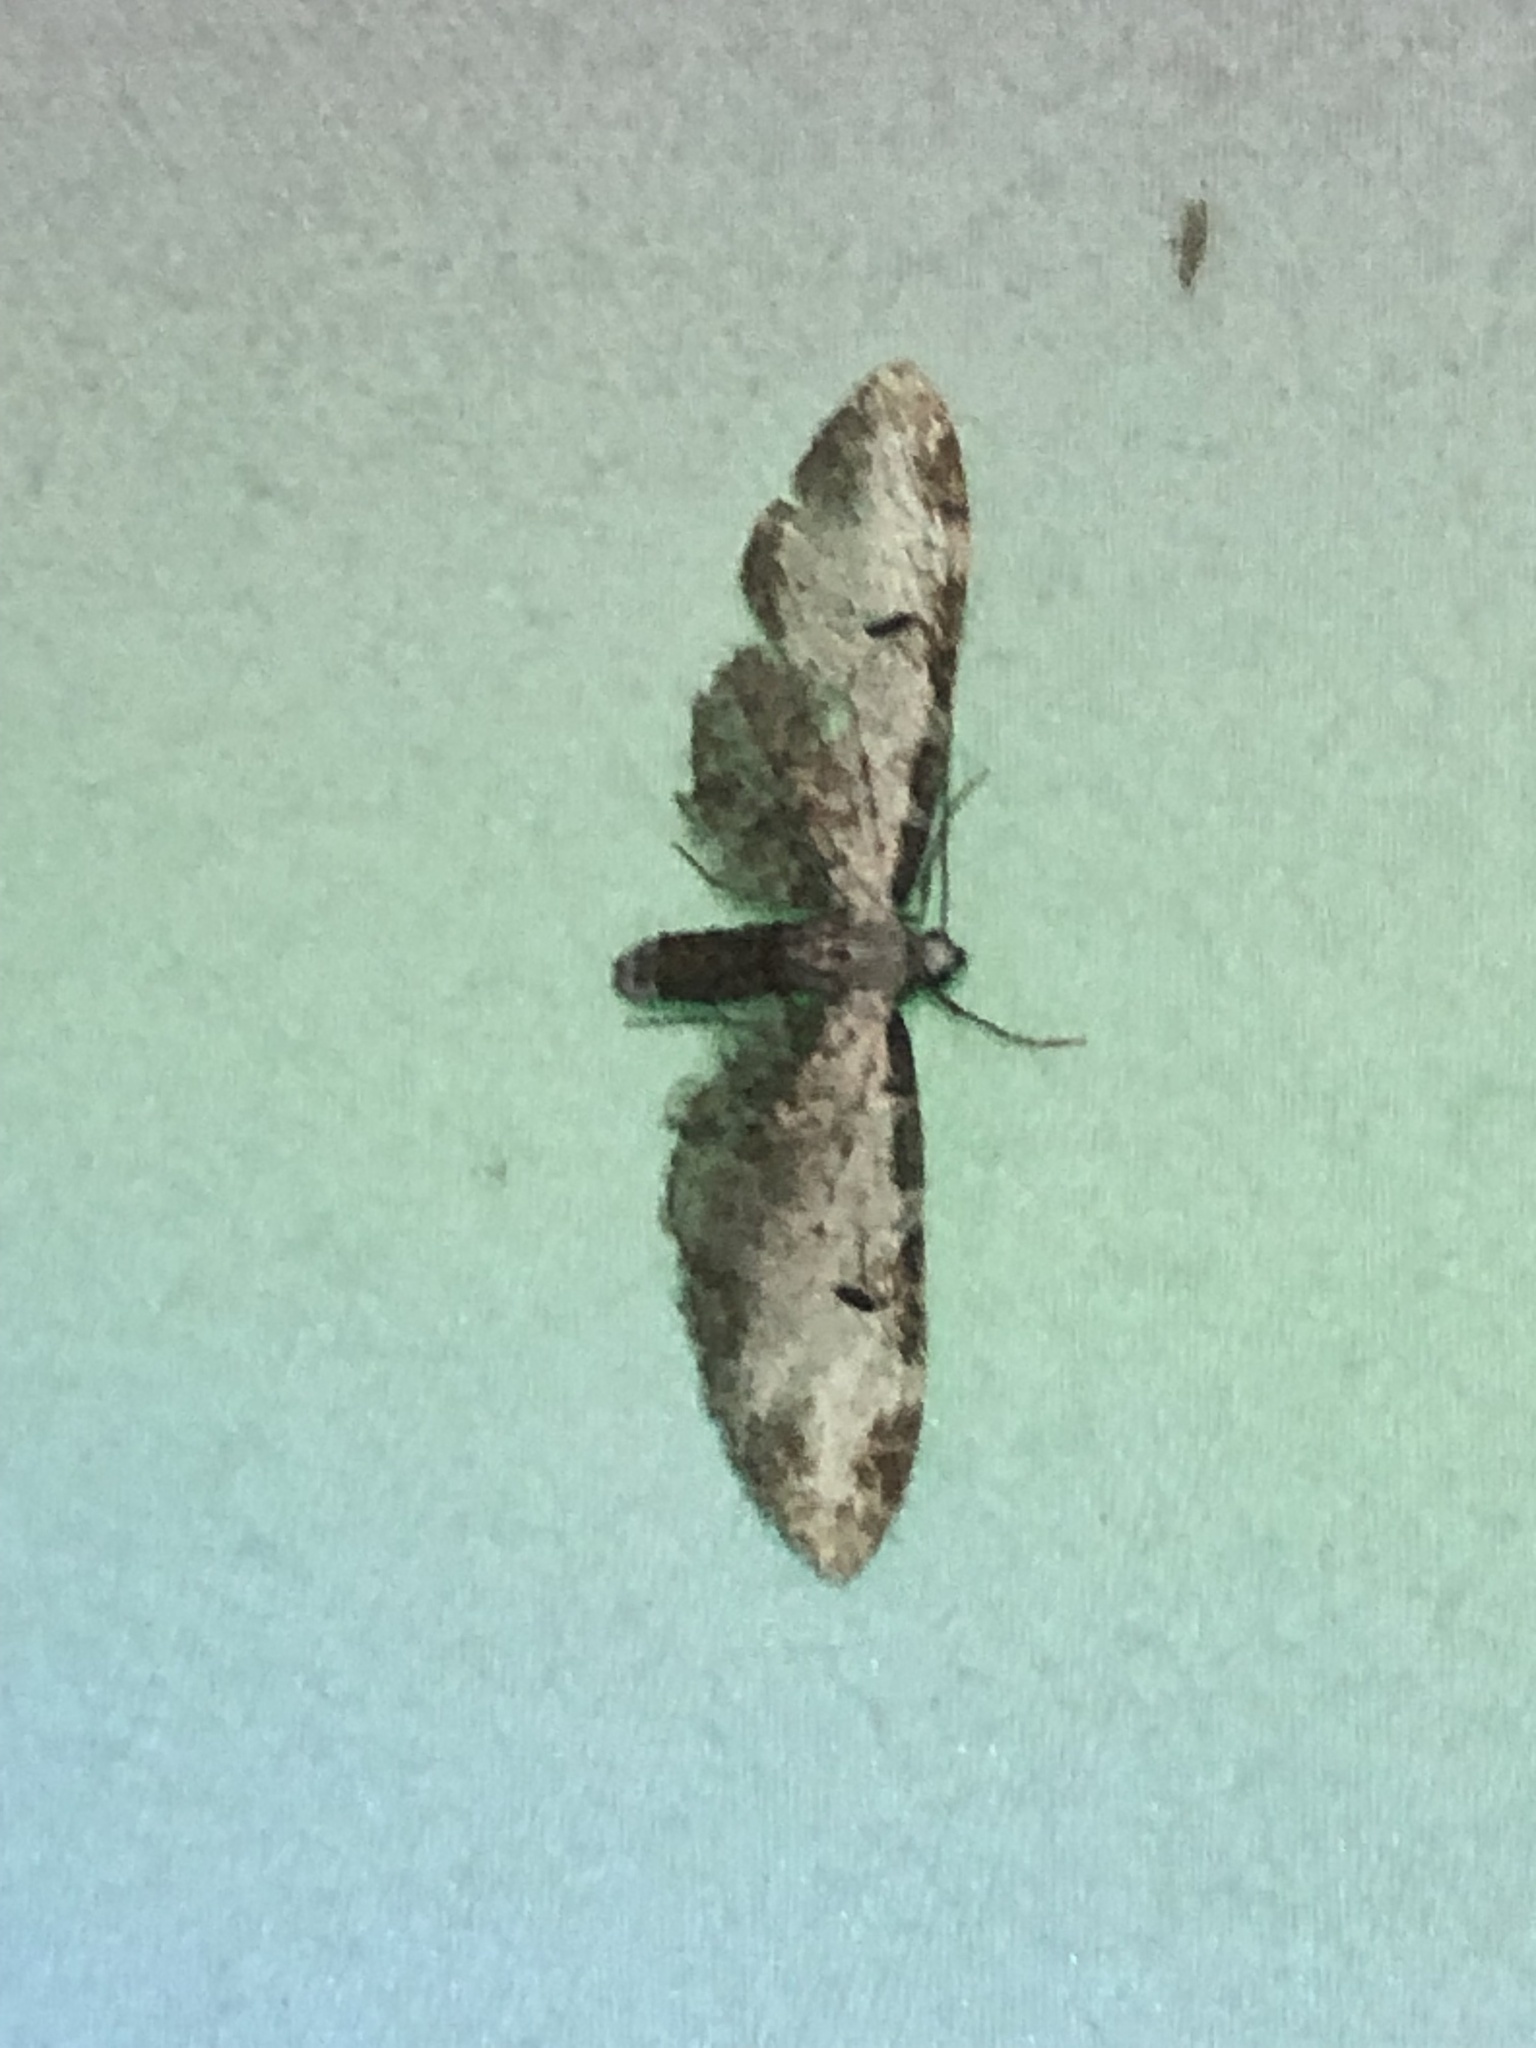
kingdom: Animalia
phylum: Arthropoda
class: Insecta
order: Lepidoptera
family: Geometridae
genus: Eupithecia
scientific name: Eupithecia ravocostaliata
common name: Great varigated pug
